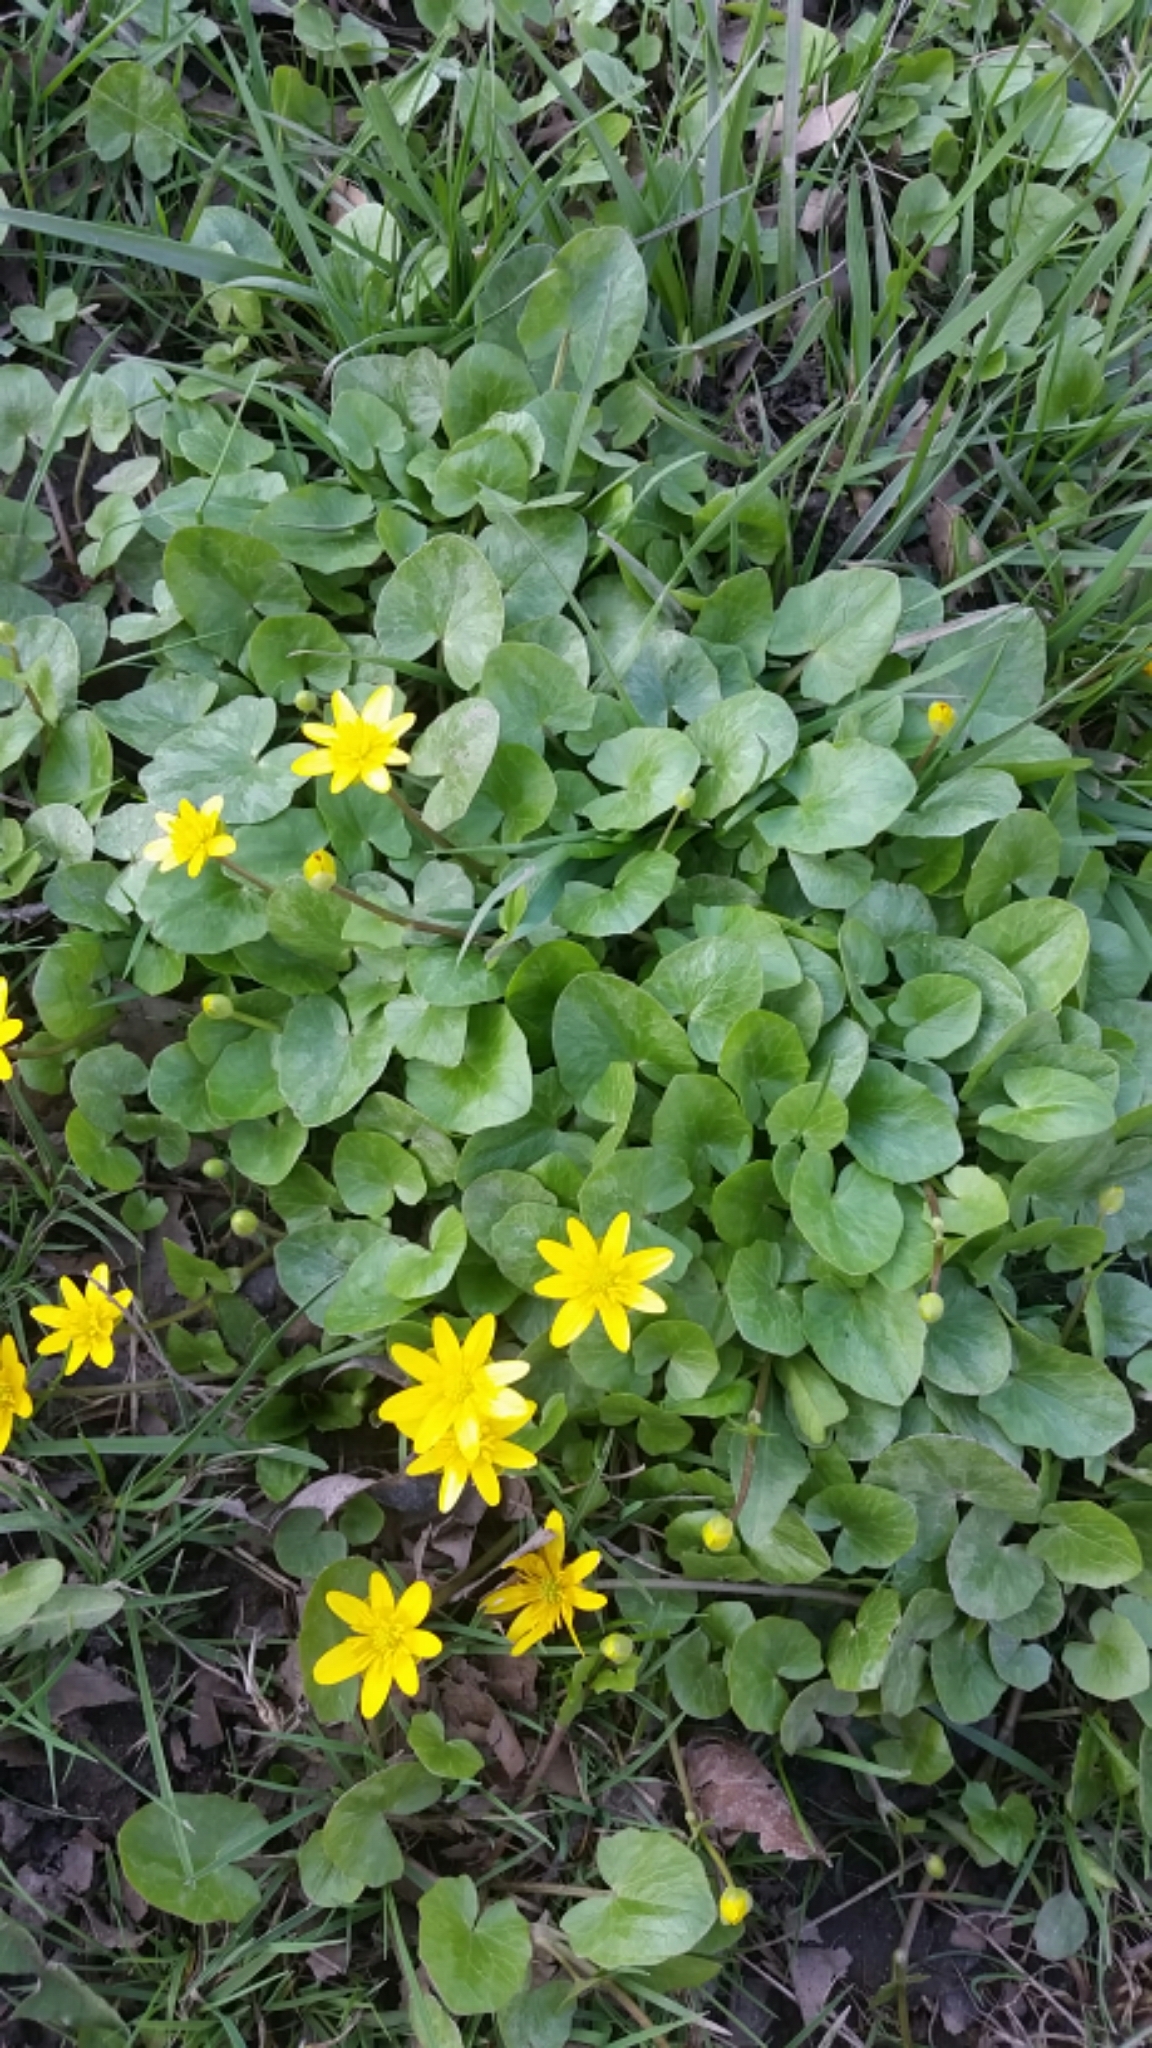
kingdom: Plantae
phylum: Tracheophyta
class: Magnoliopsida
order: Ranunculales
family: Ranunculaceae
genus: Ficaria
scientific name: Ficaria verna
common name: Lesser celandine
